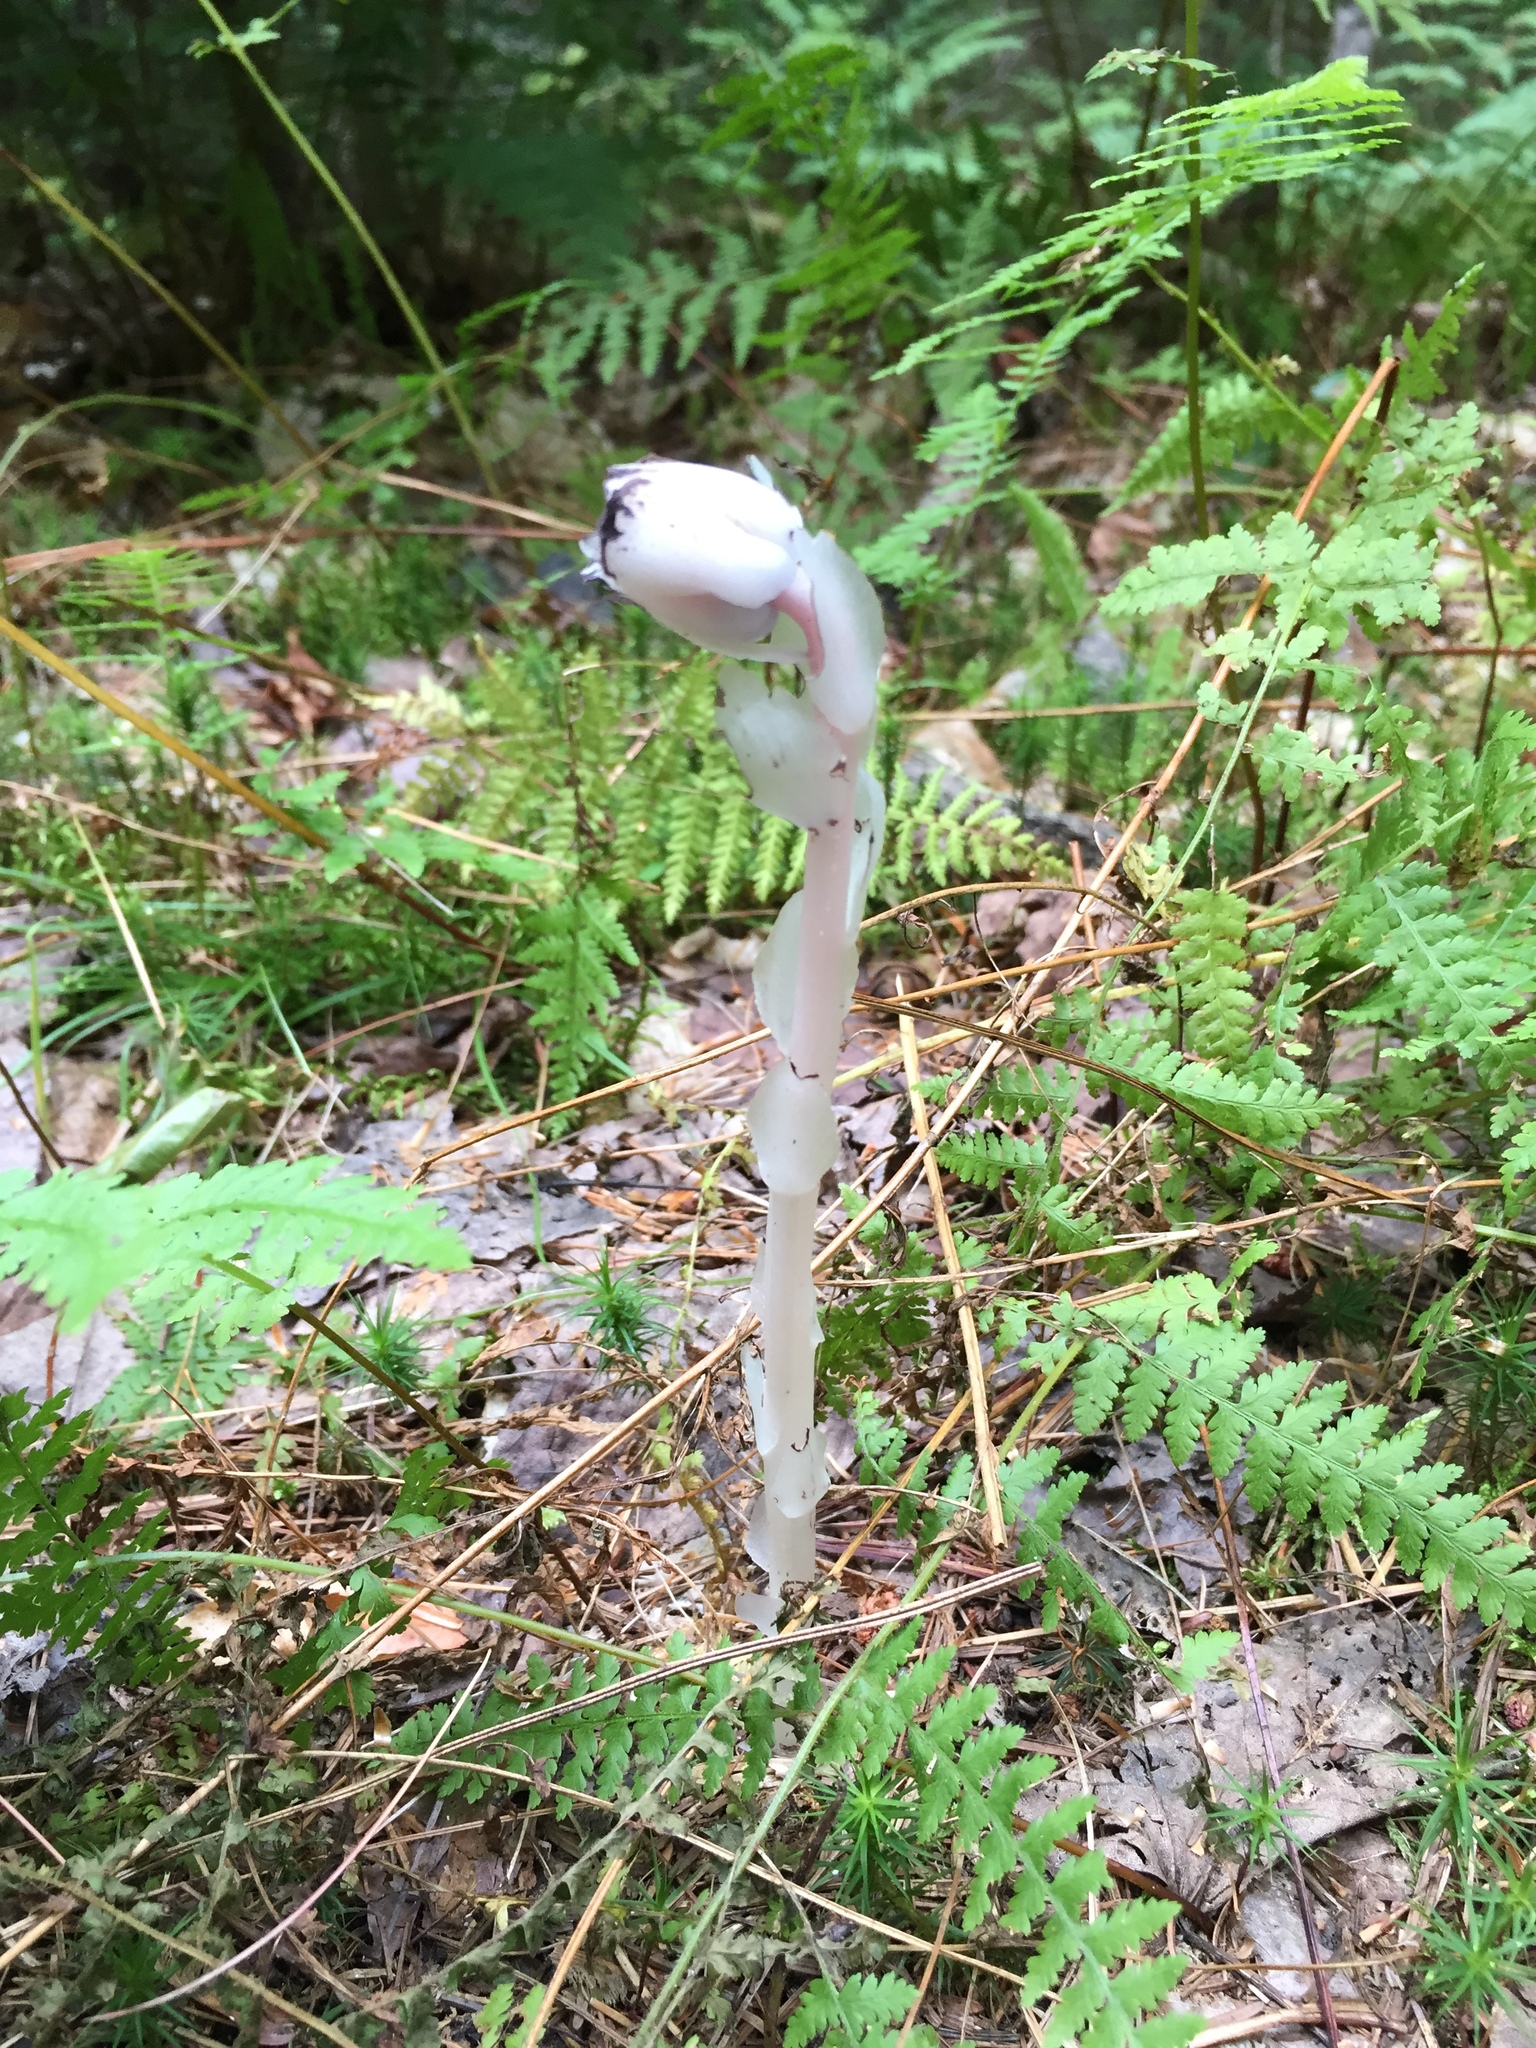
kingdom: Plantae
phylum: Tracheophyta
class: Magnoliopsida
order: Ericales
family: Ericaceae
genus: Monotropa
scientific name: Monotropa uniflora
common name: Convulsion root
